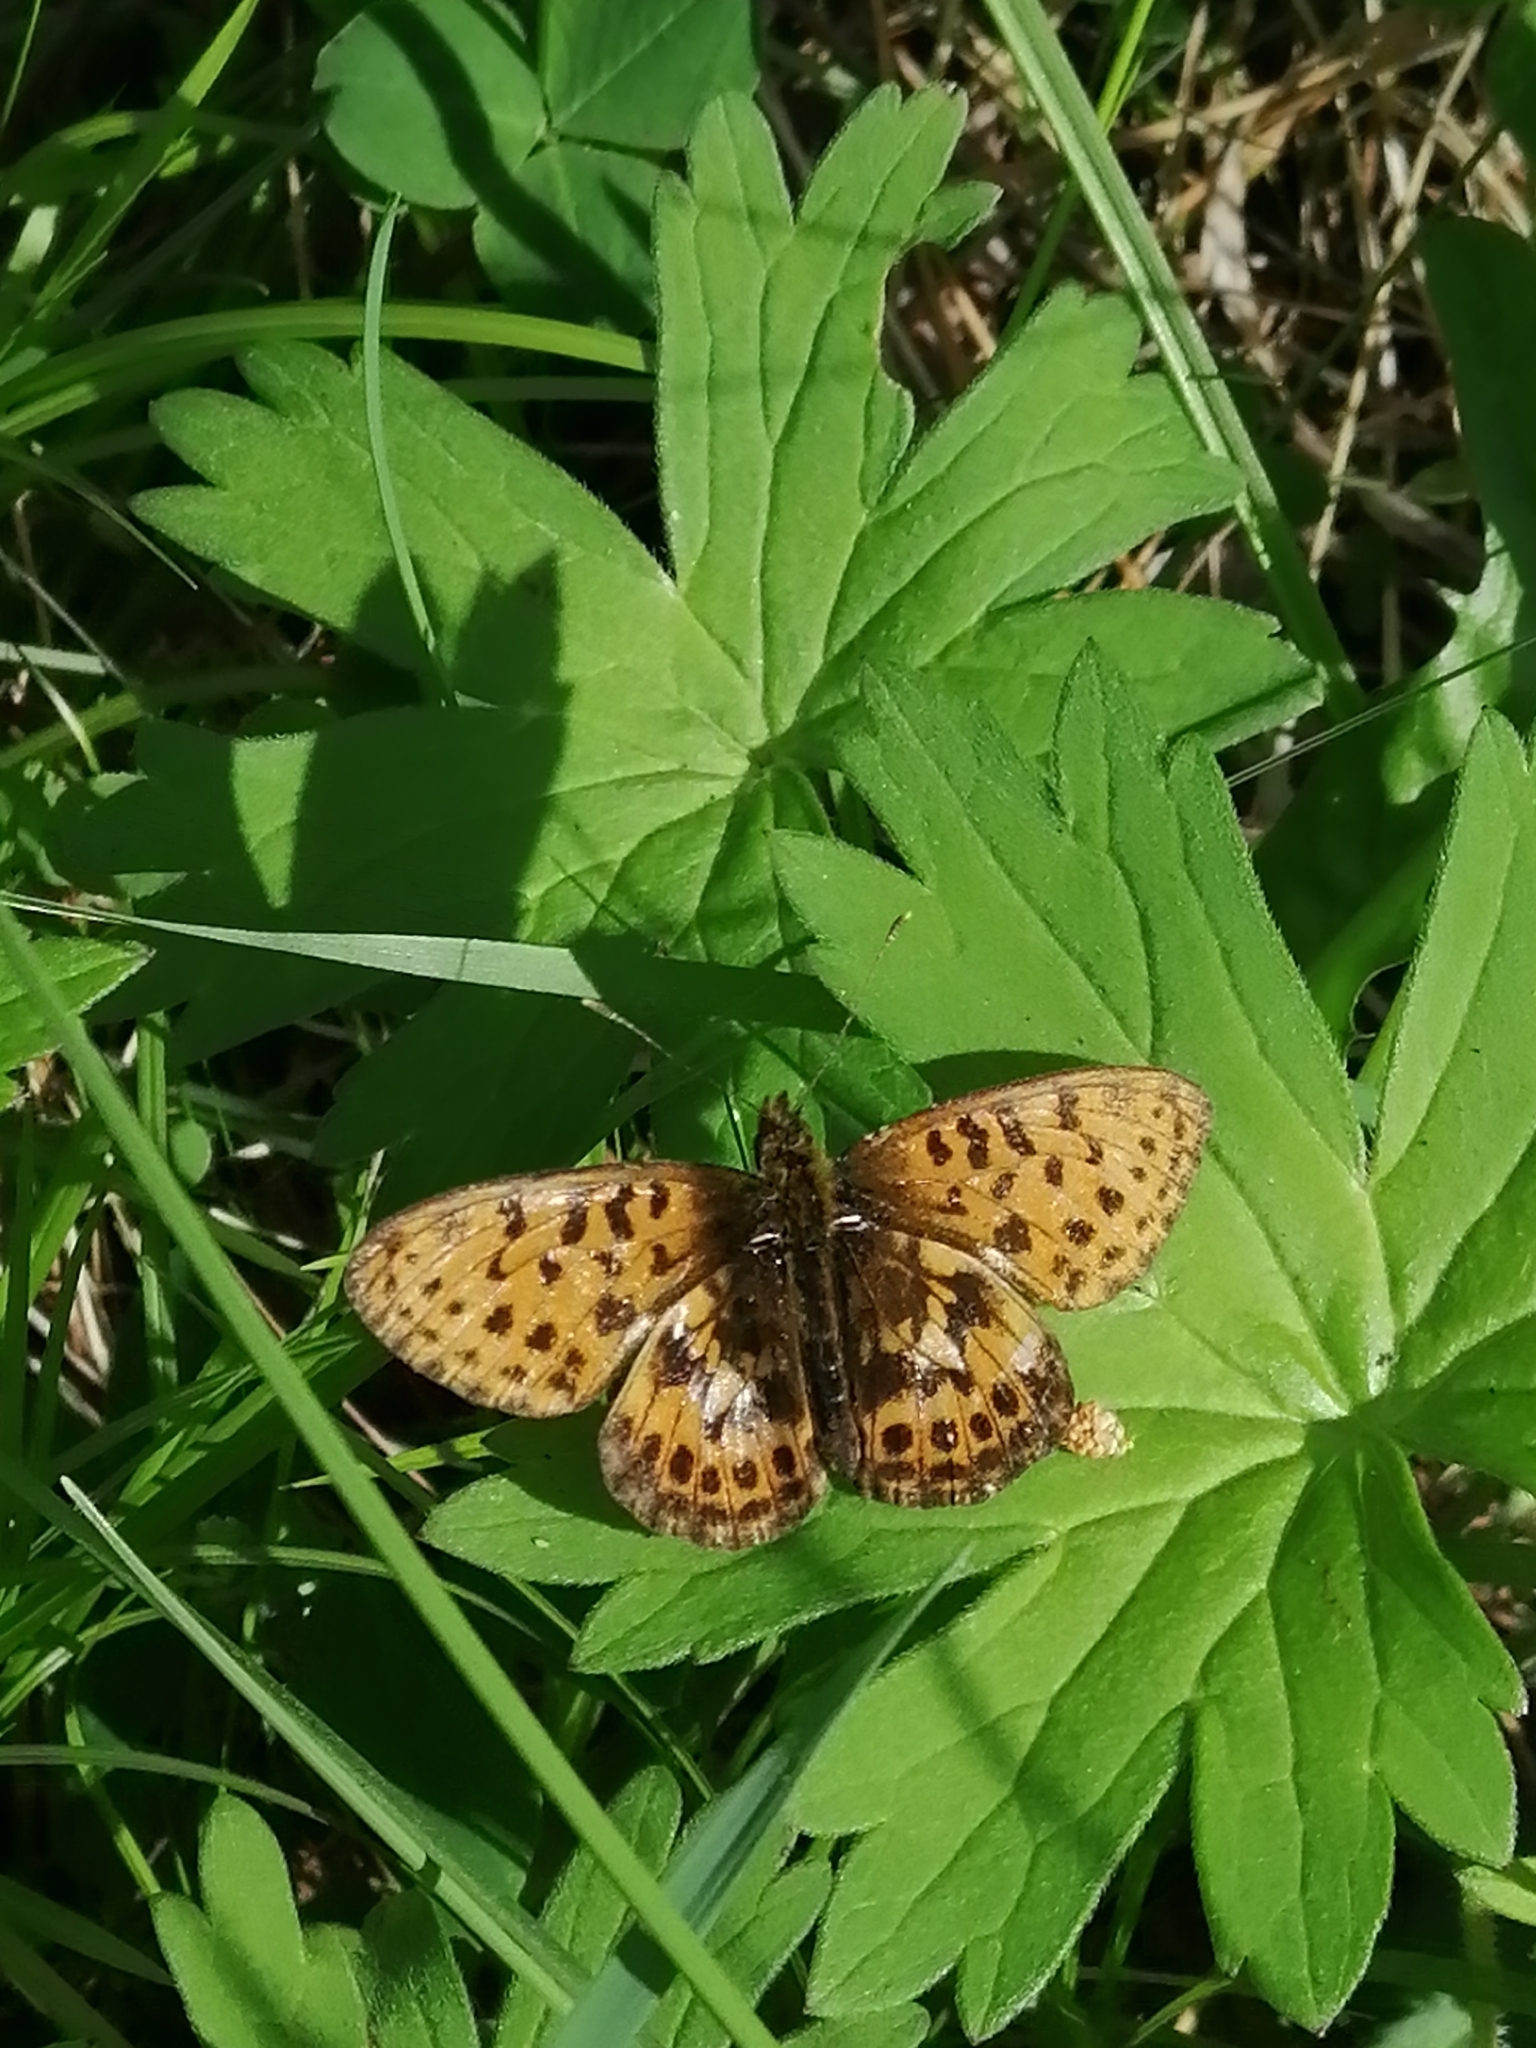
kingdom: Animalia
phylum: Arthropoda
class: Insecta
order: Lepidoptera
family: Nymphalidae
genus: Boloria
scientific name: Boloria thore
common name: Thor's fritillary
